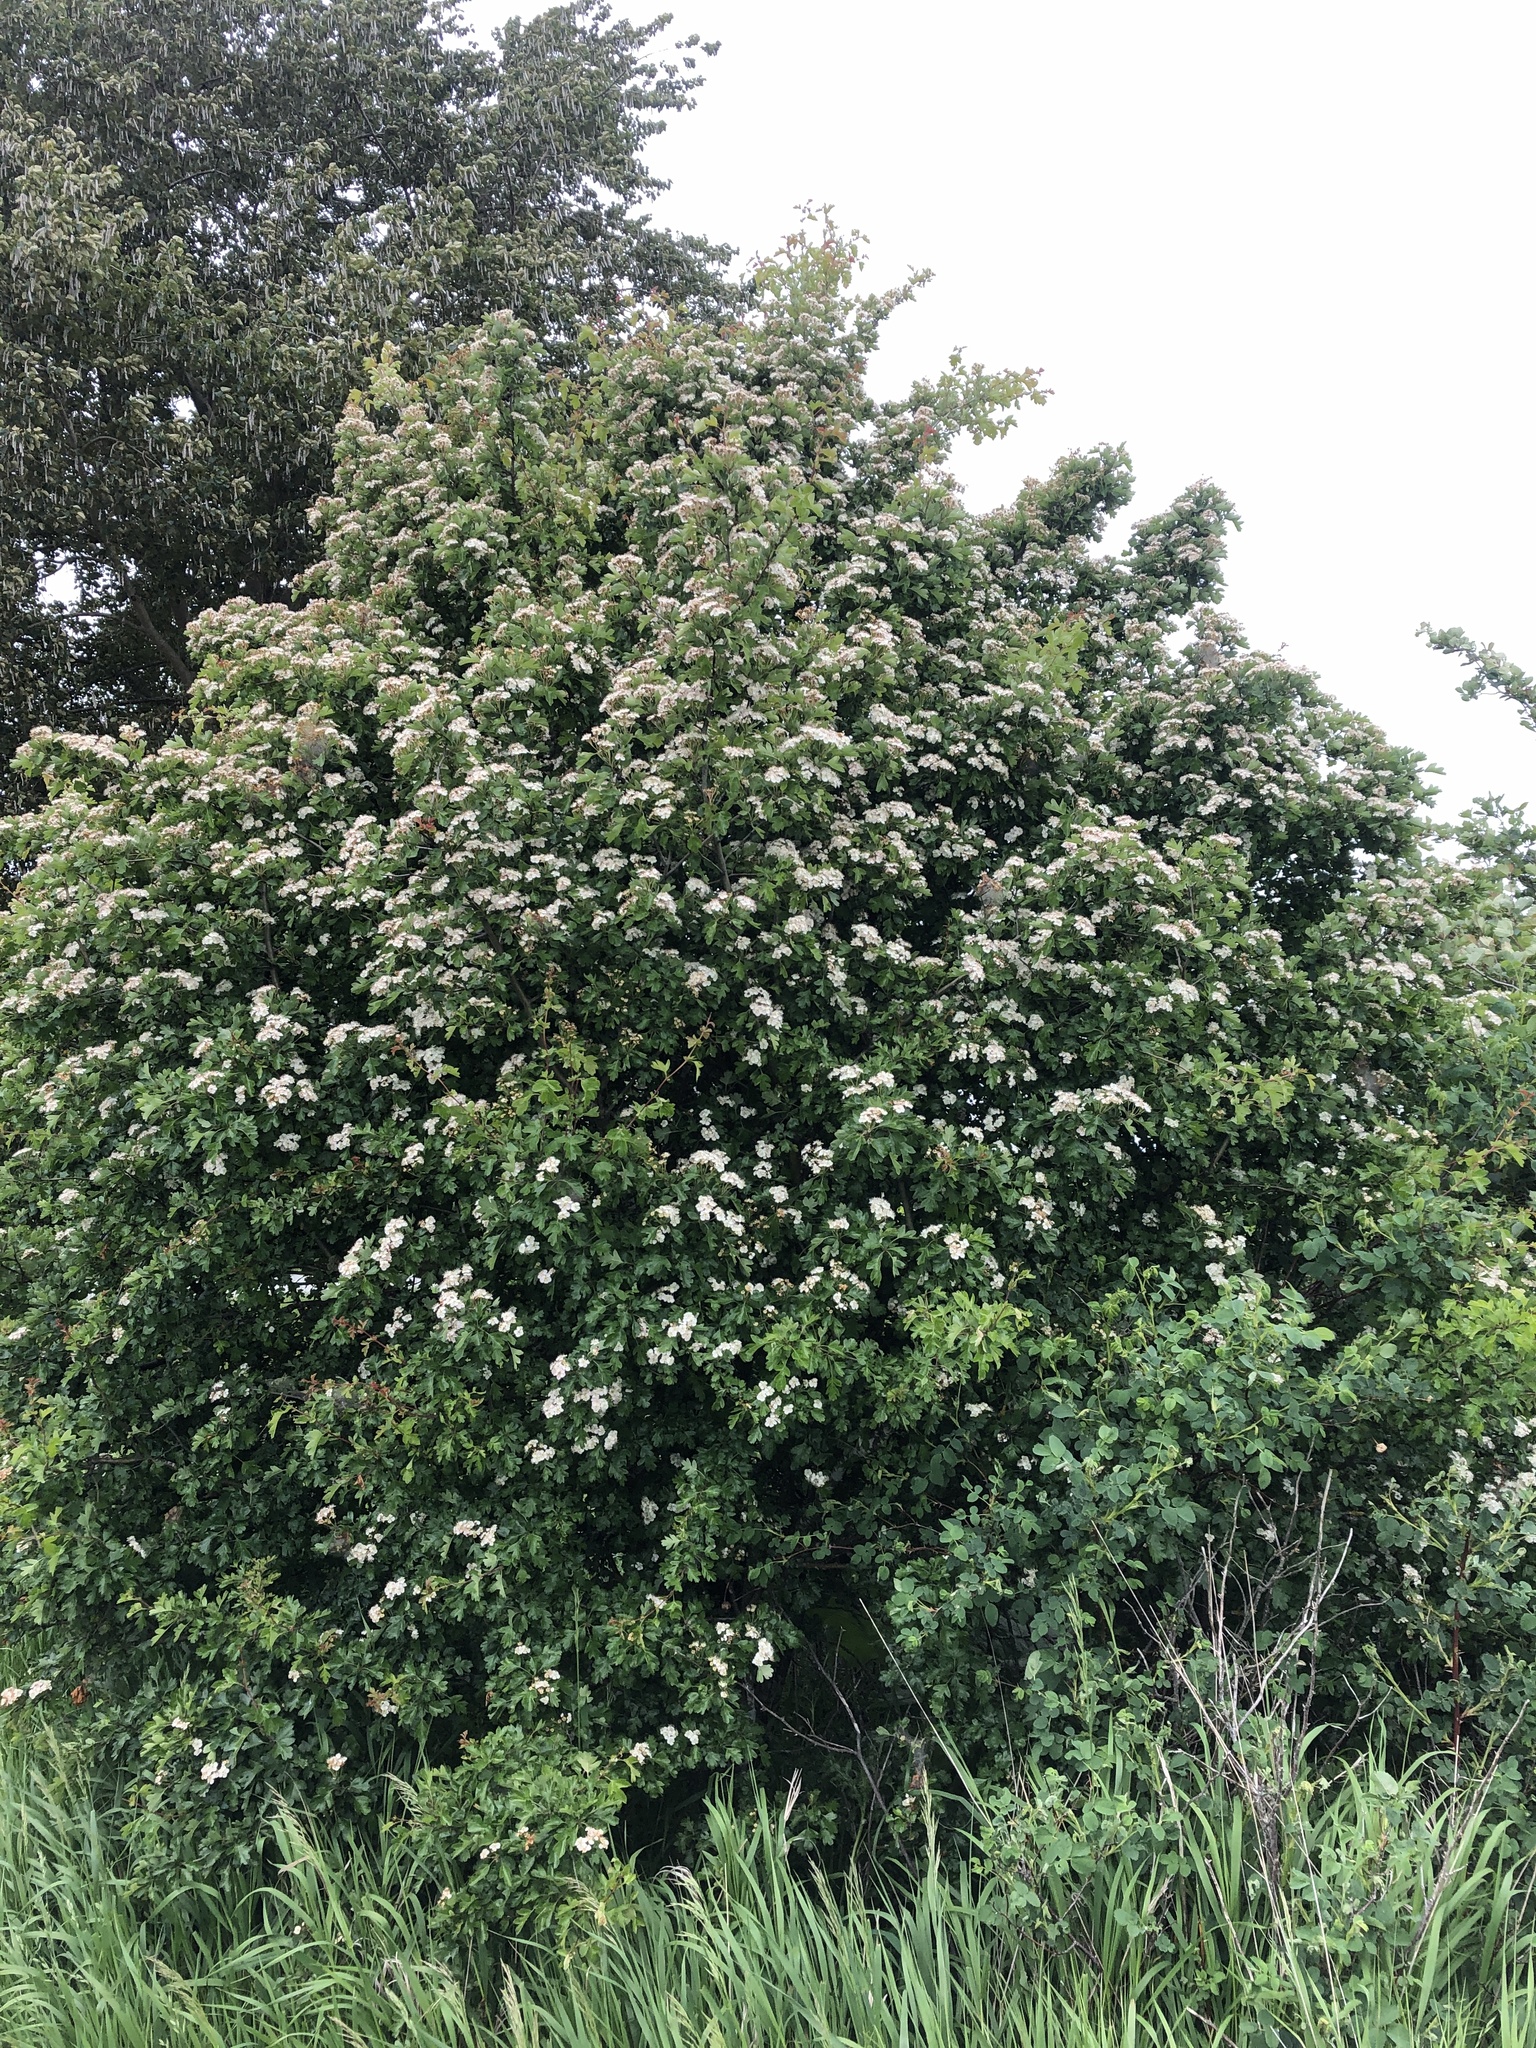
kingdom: Plantae
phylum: Tracheophyta
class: Magnoliopsida
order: Rosales
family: Rosaceae
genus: Crataegus
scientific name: Crataegus monogyna
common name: Hawthorn
